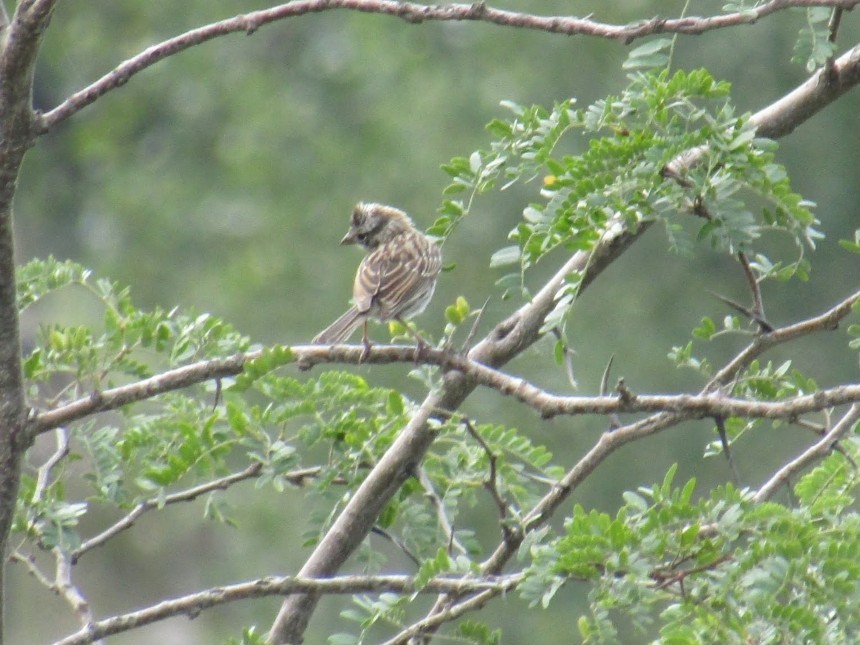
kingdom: Animalia
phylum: Chordata
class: Aves
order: Passeriformes
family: Passerellidae
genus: Zonotrichia
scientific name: Zonotrichia capensis
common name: Rufous-collared sparrow
